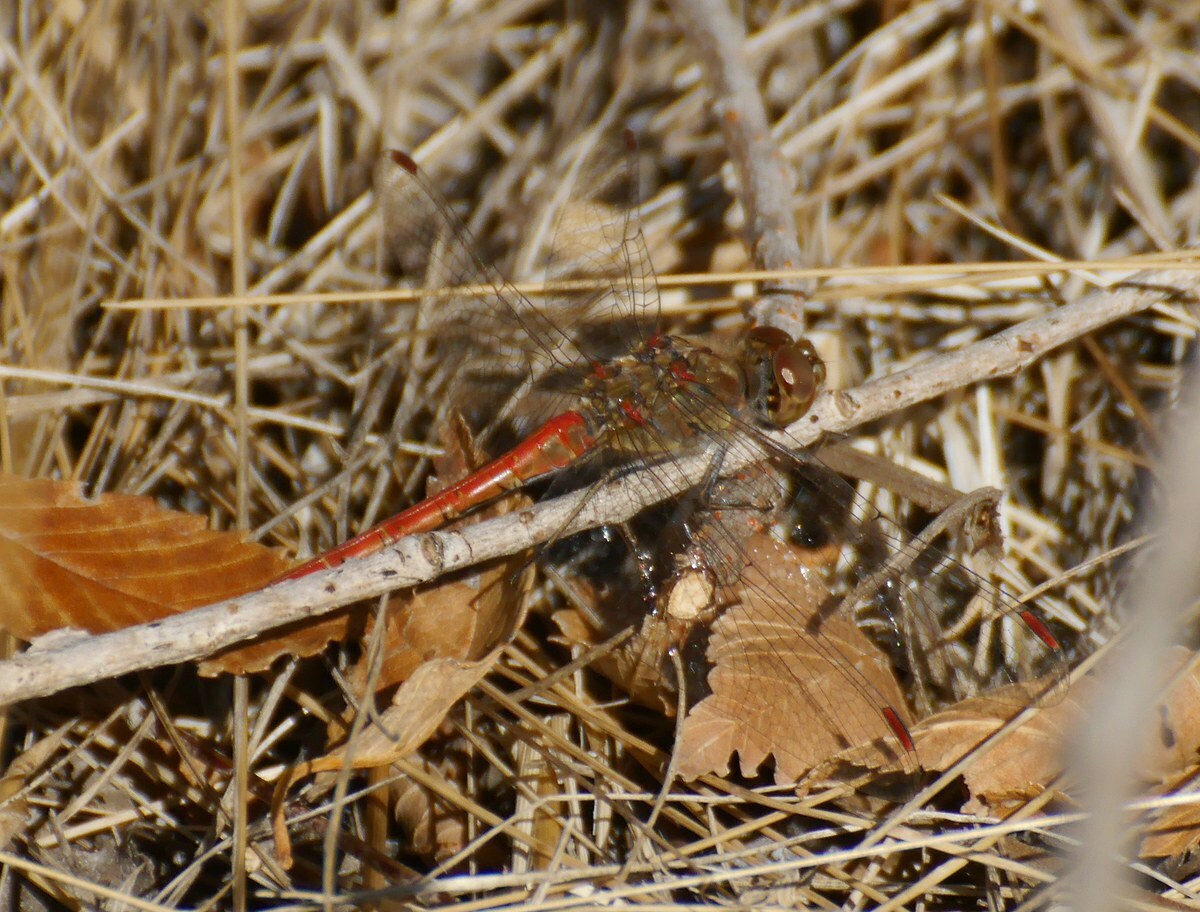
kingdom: Animalia
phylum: Arthropoda
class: Insecta
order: Odonata
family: Libellulidae
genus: Sympetrum
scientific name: Sympetrum striolatum
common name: Common darter
